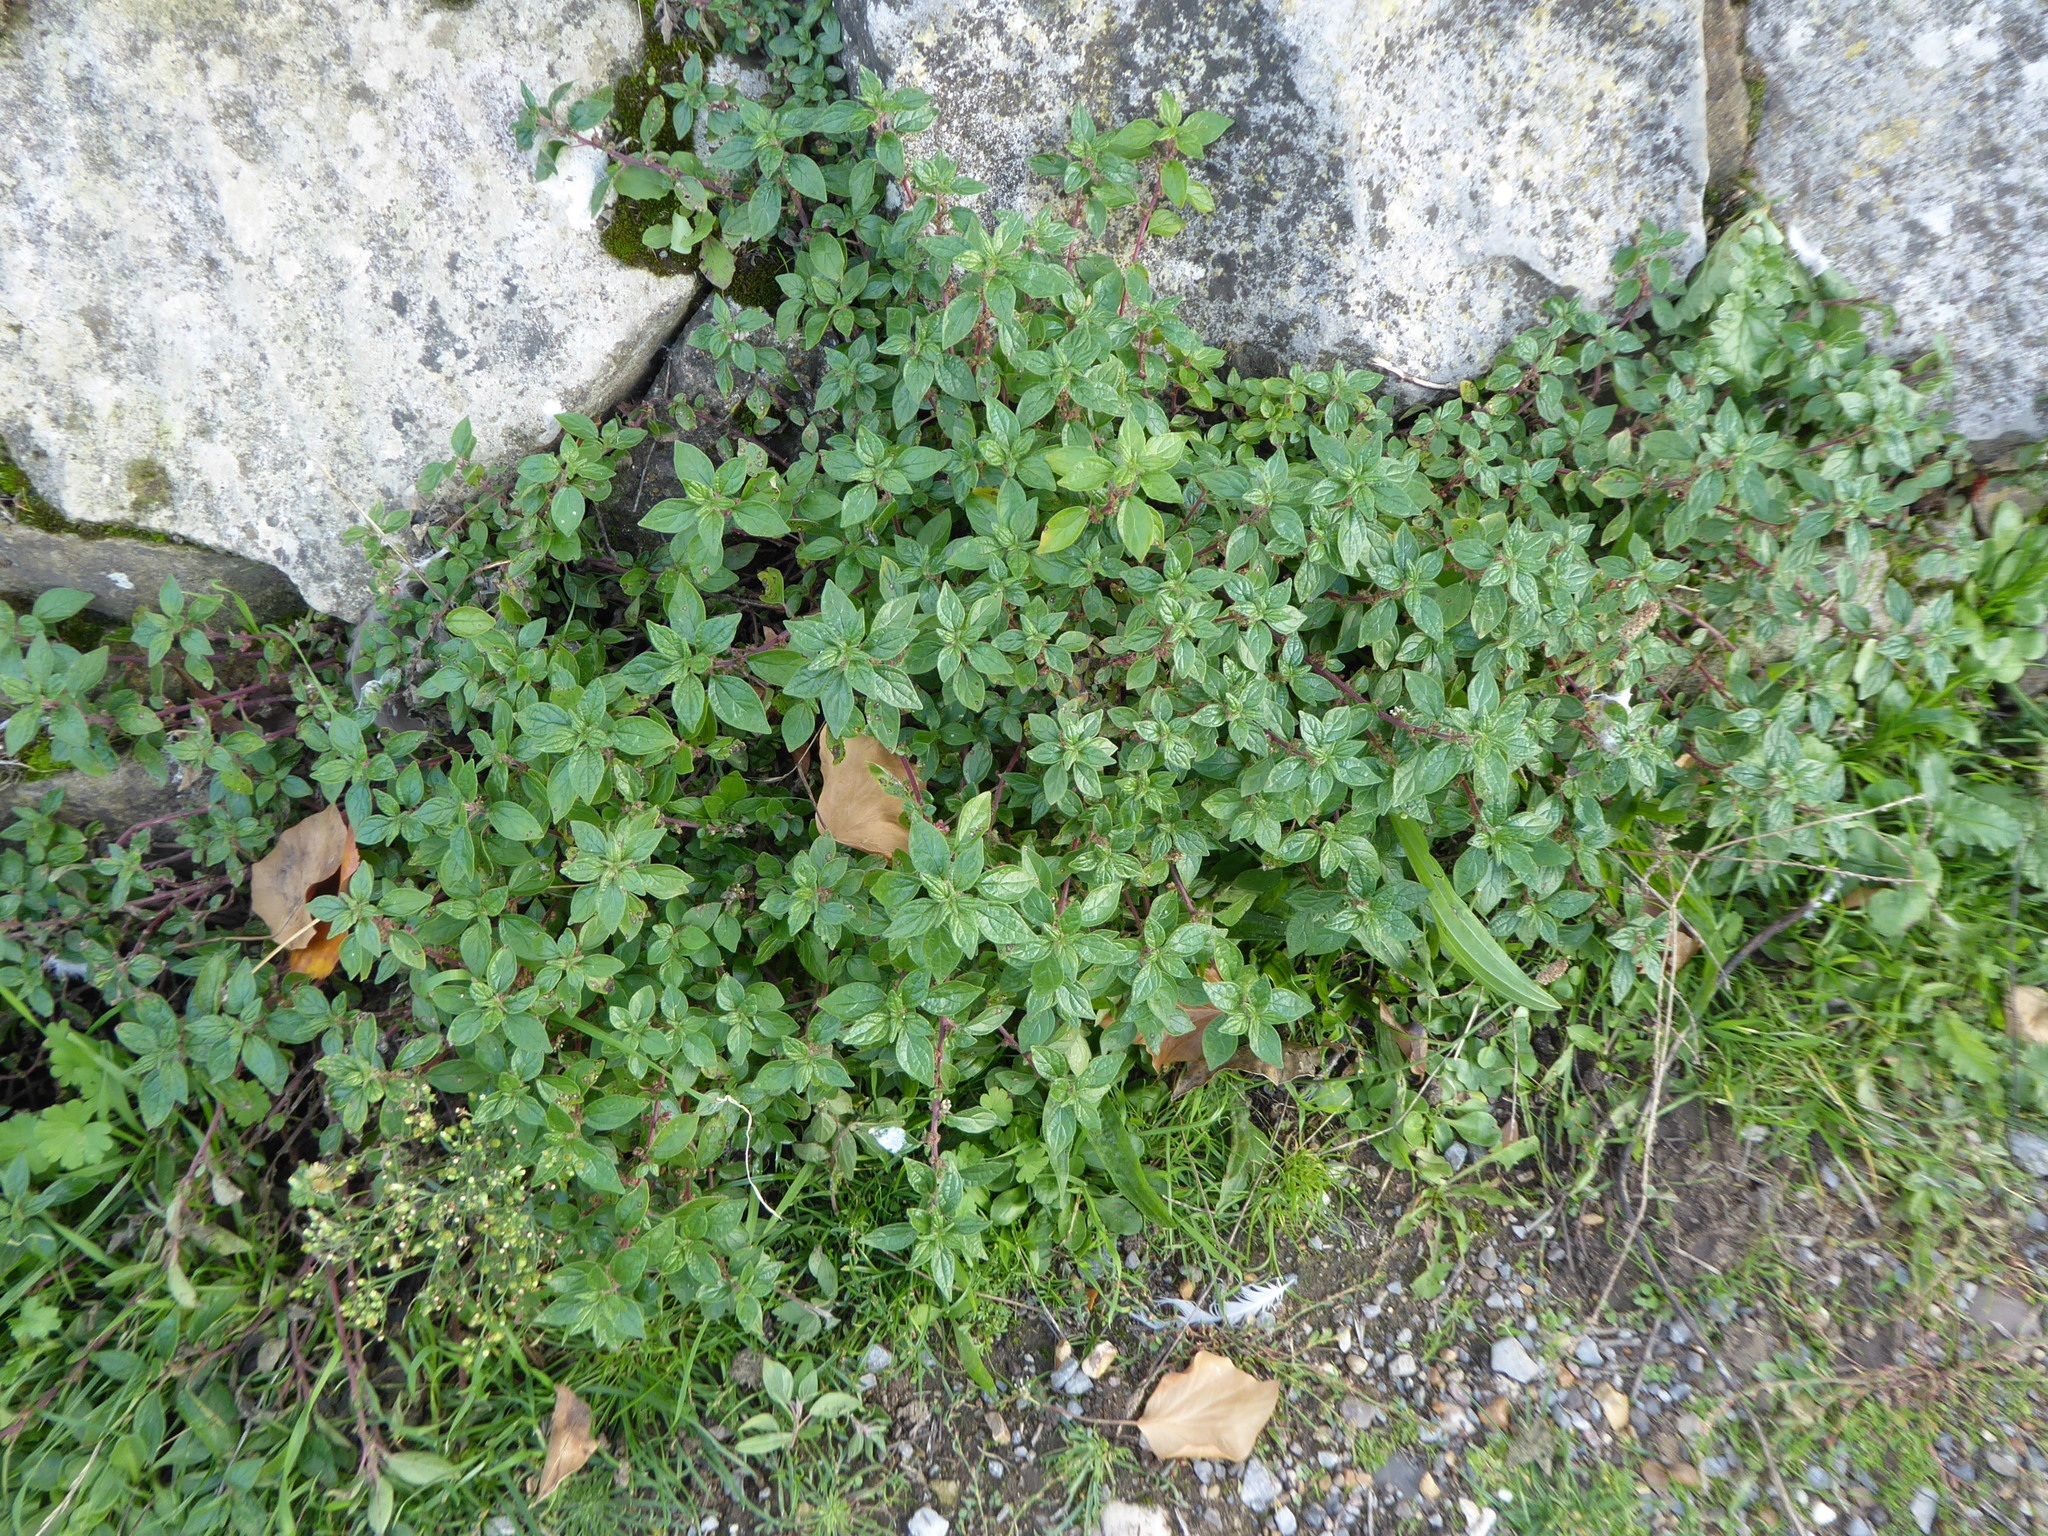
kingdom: Plantae
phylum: Tracheophyta
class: Magnoliopsida
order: Rosales
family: Urticaceae
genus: Parietaria
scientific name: Parietaria judaica
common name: Pellitory-of-the-wall
